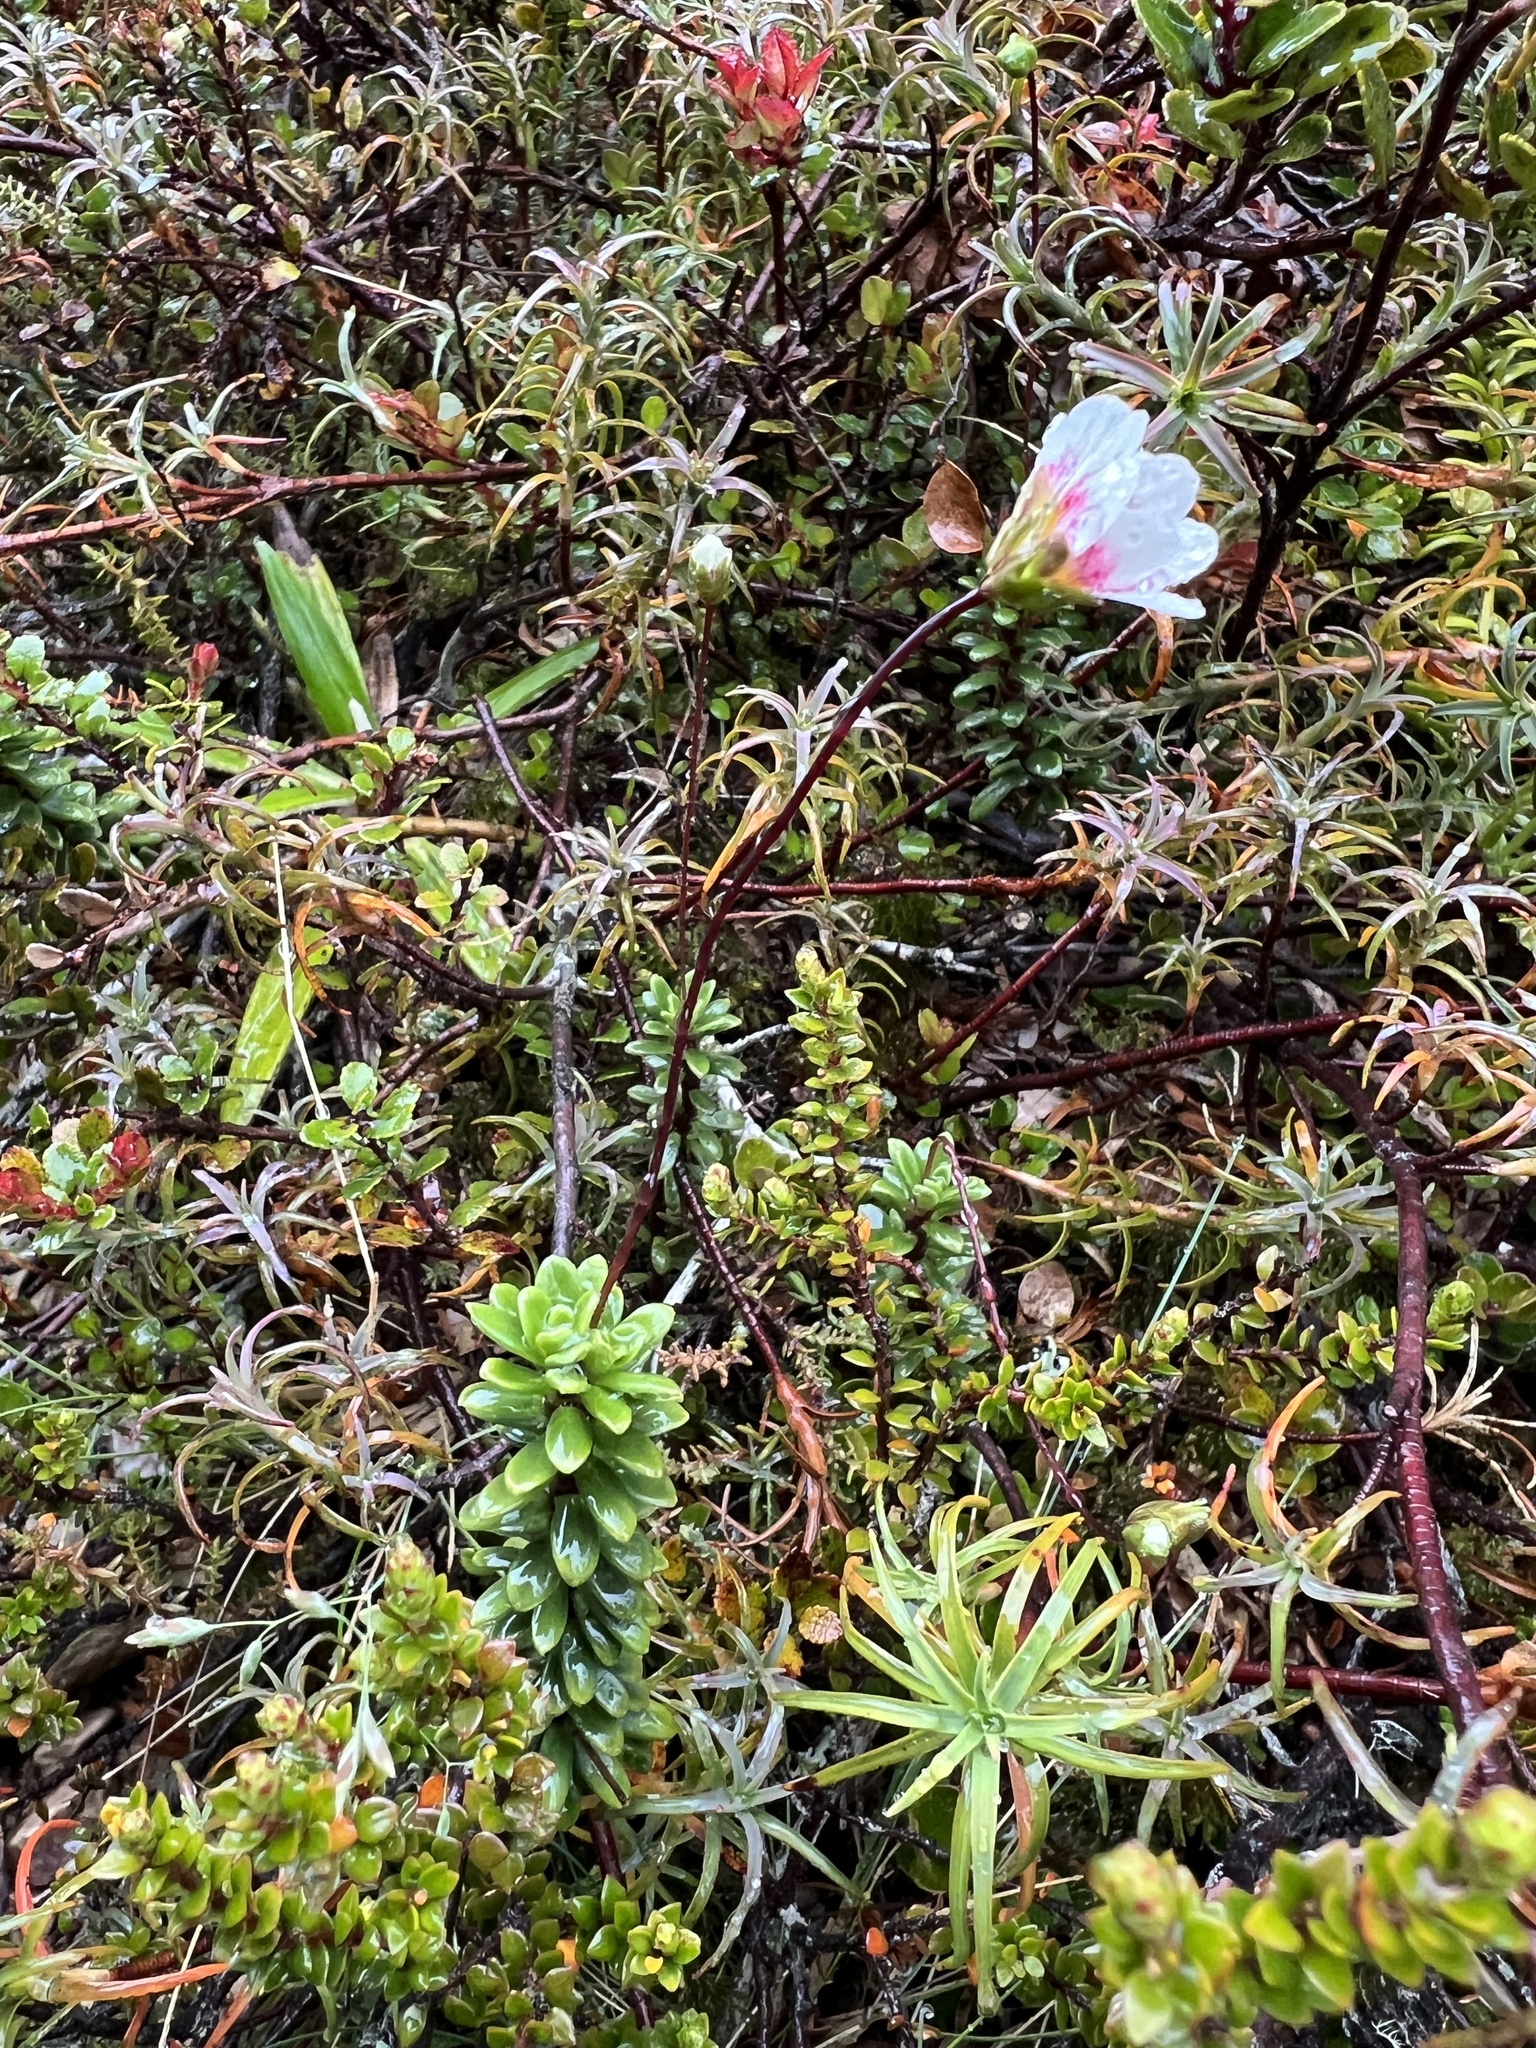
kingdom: Plantae
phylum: Tracheophyta
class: Magnoliopsida
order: Asterales
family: Stylidiaceae
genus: Forstera
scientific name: Forstera tenella
